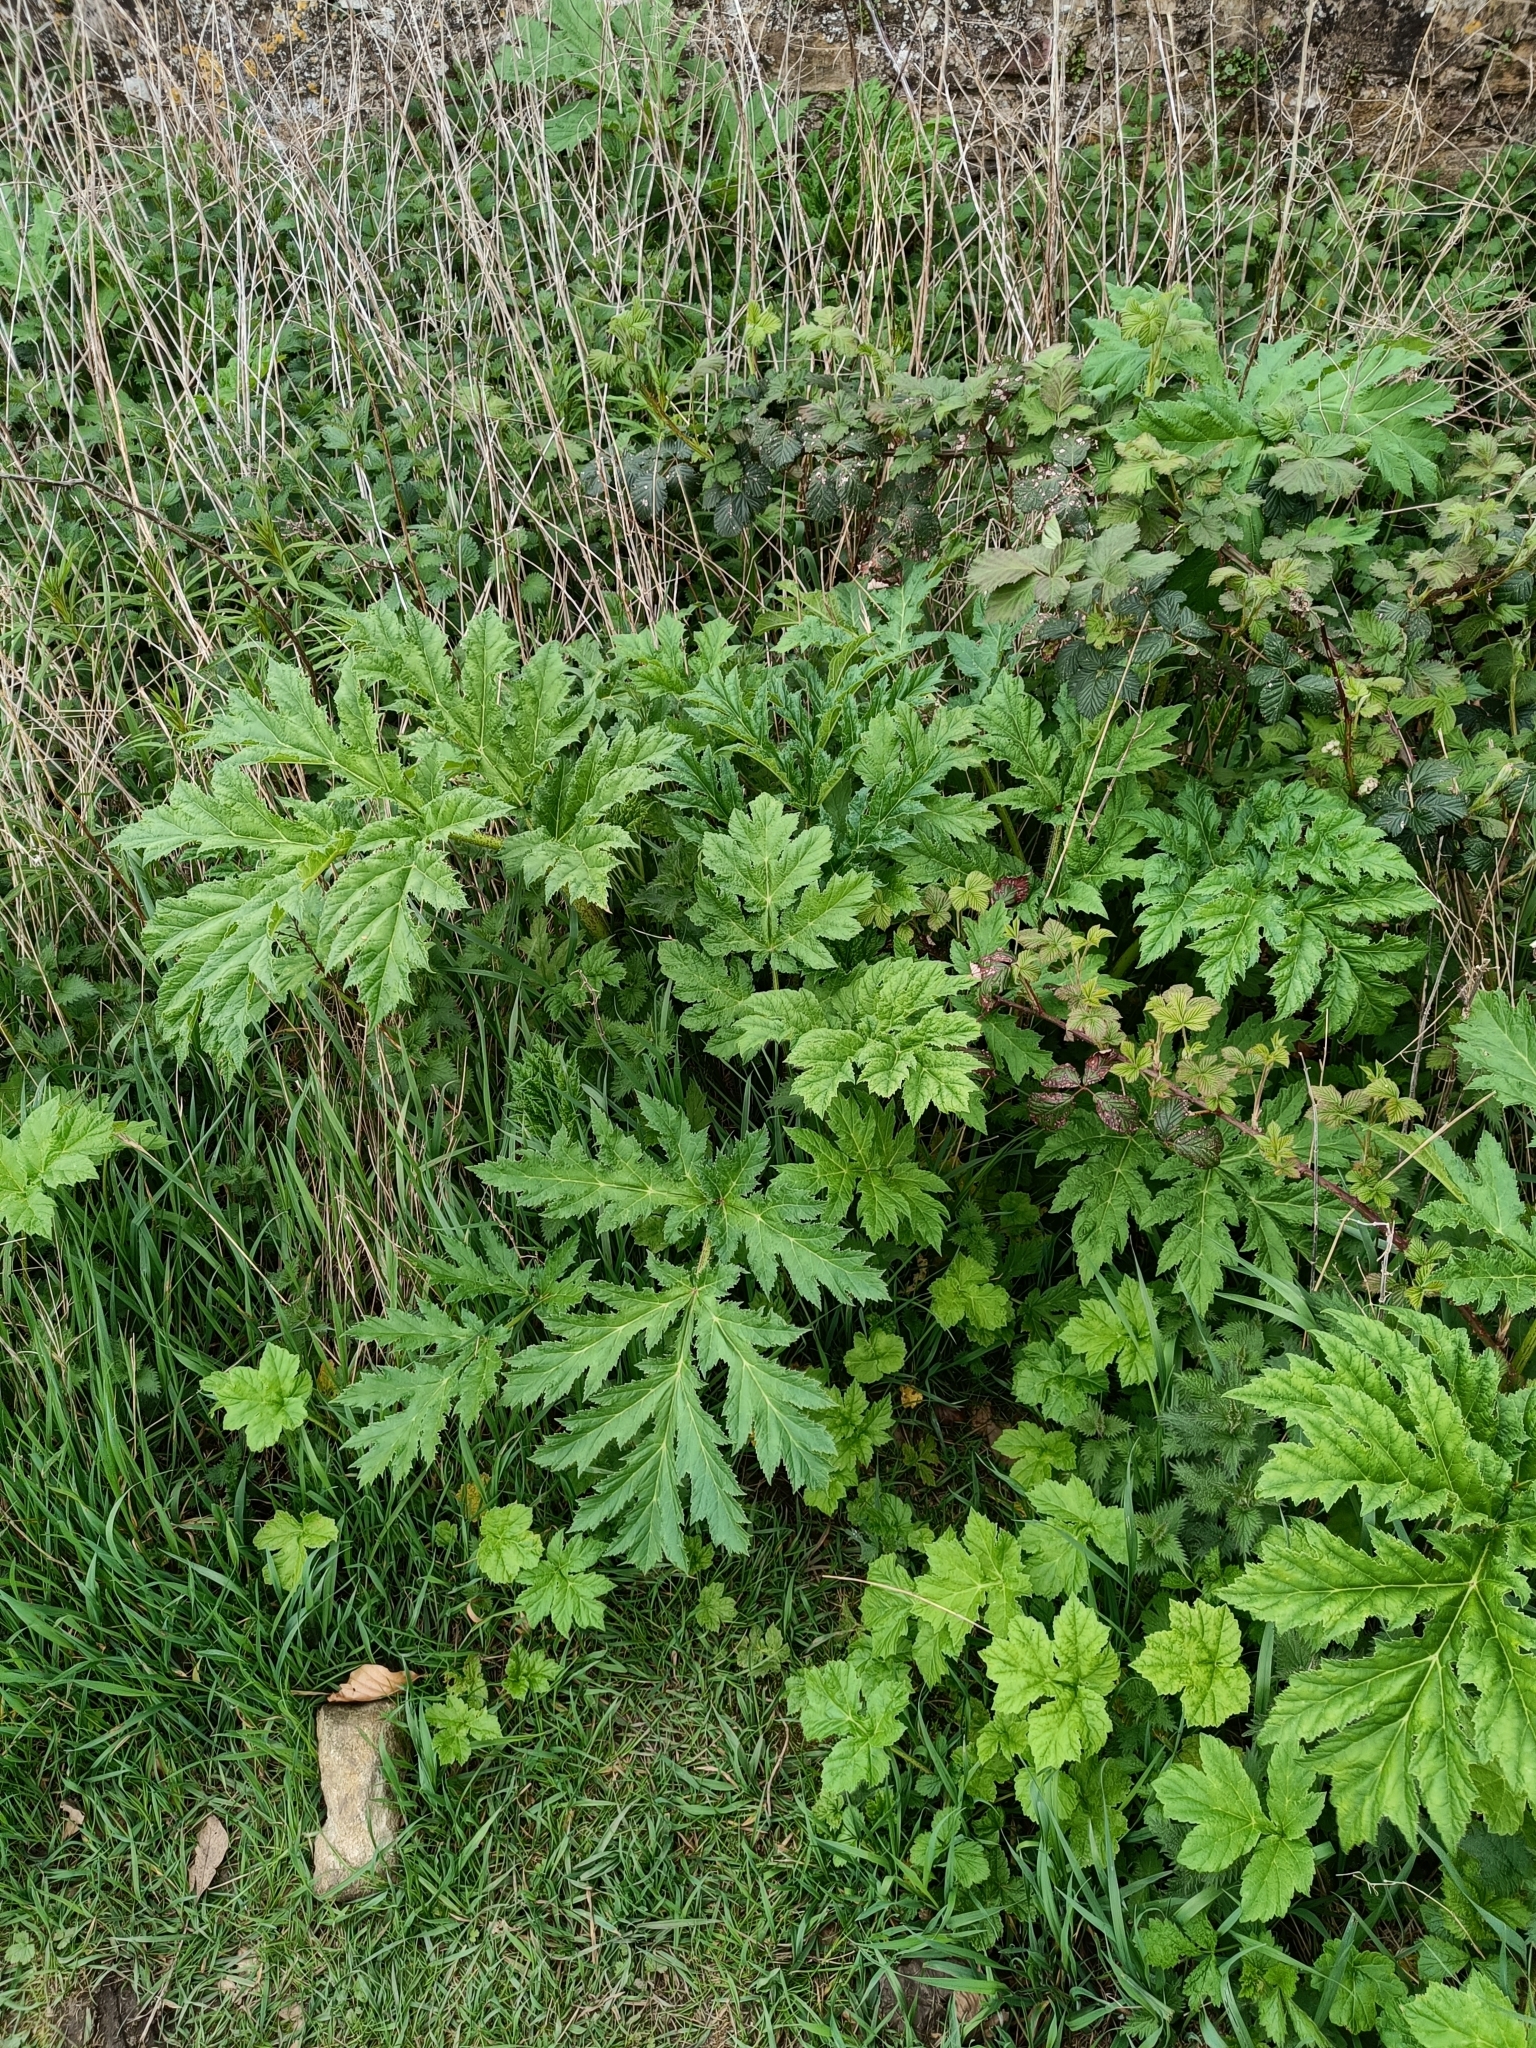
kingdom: Plantae
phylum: Tracheophyta
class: Magnoliopsida
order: Apiales
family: Apiaceae
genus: Heracleum
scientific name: Heracleum mantegazzianum
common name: Giant hogweed
